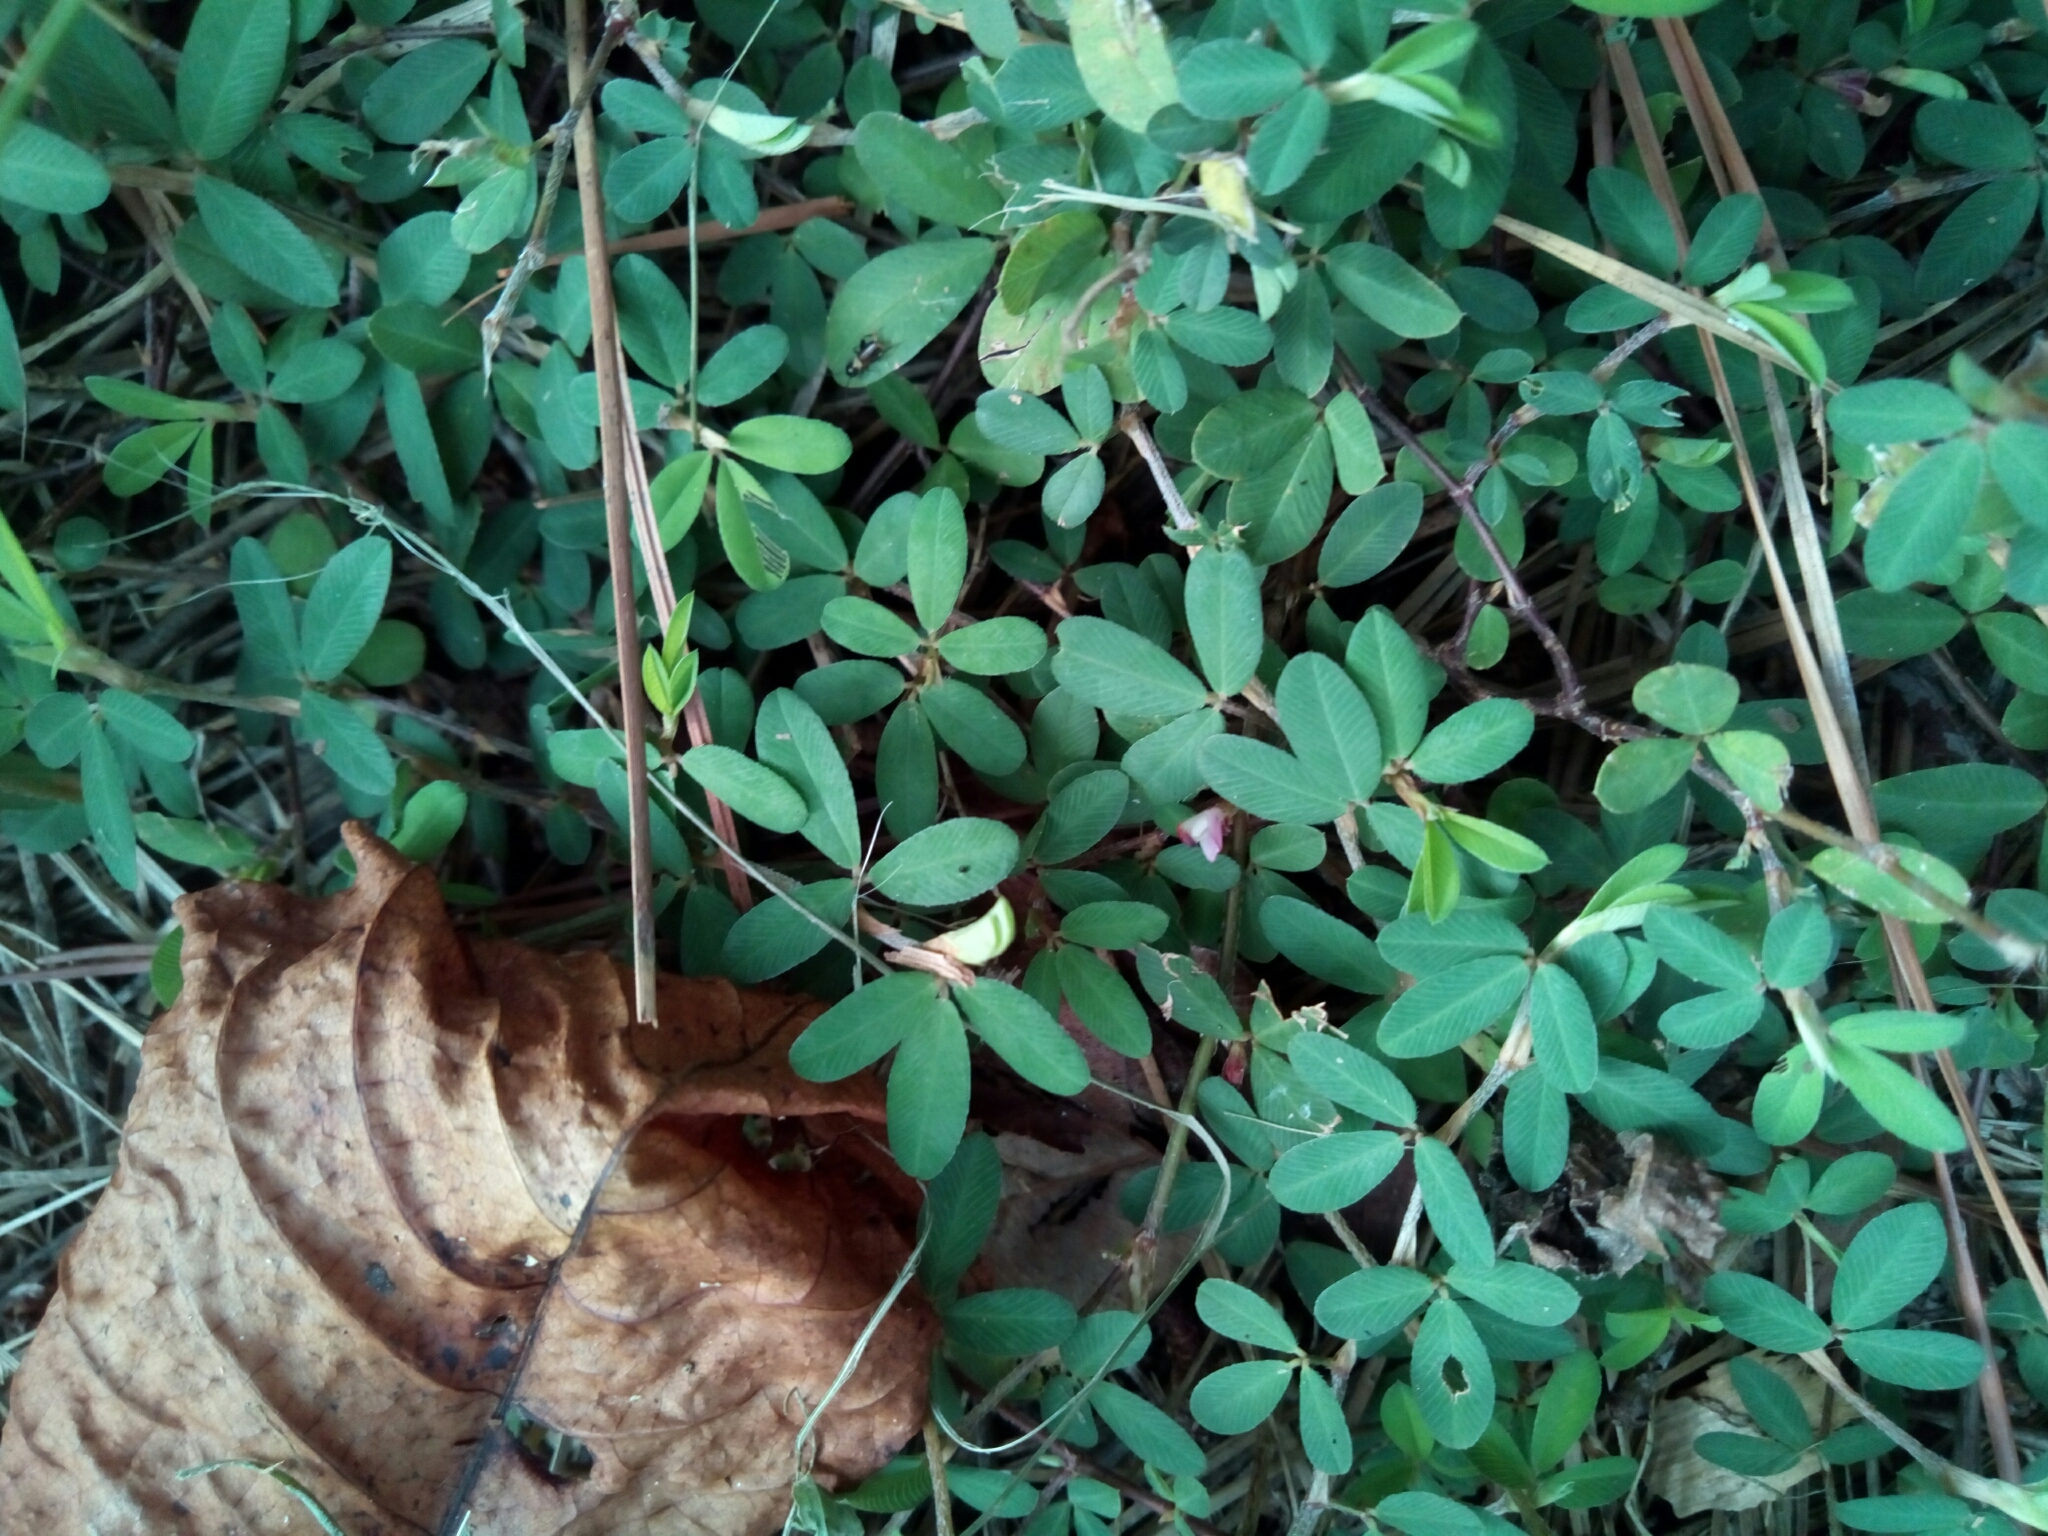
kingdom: Plantae
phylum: Tracheophyta
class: Magnoliopsida
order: Fabales
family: Fabaceae
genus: Kummerowia
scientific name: Kummerowia striata
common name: Japanese clover
